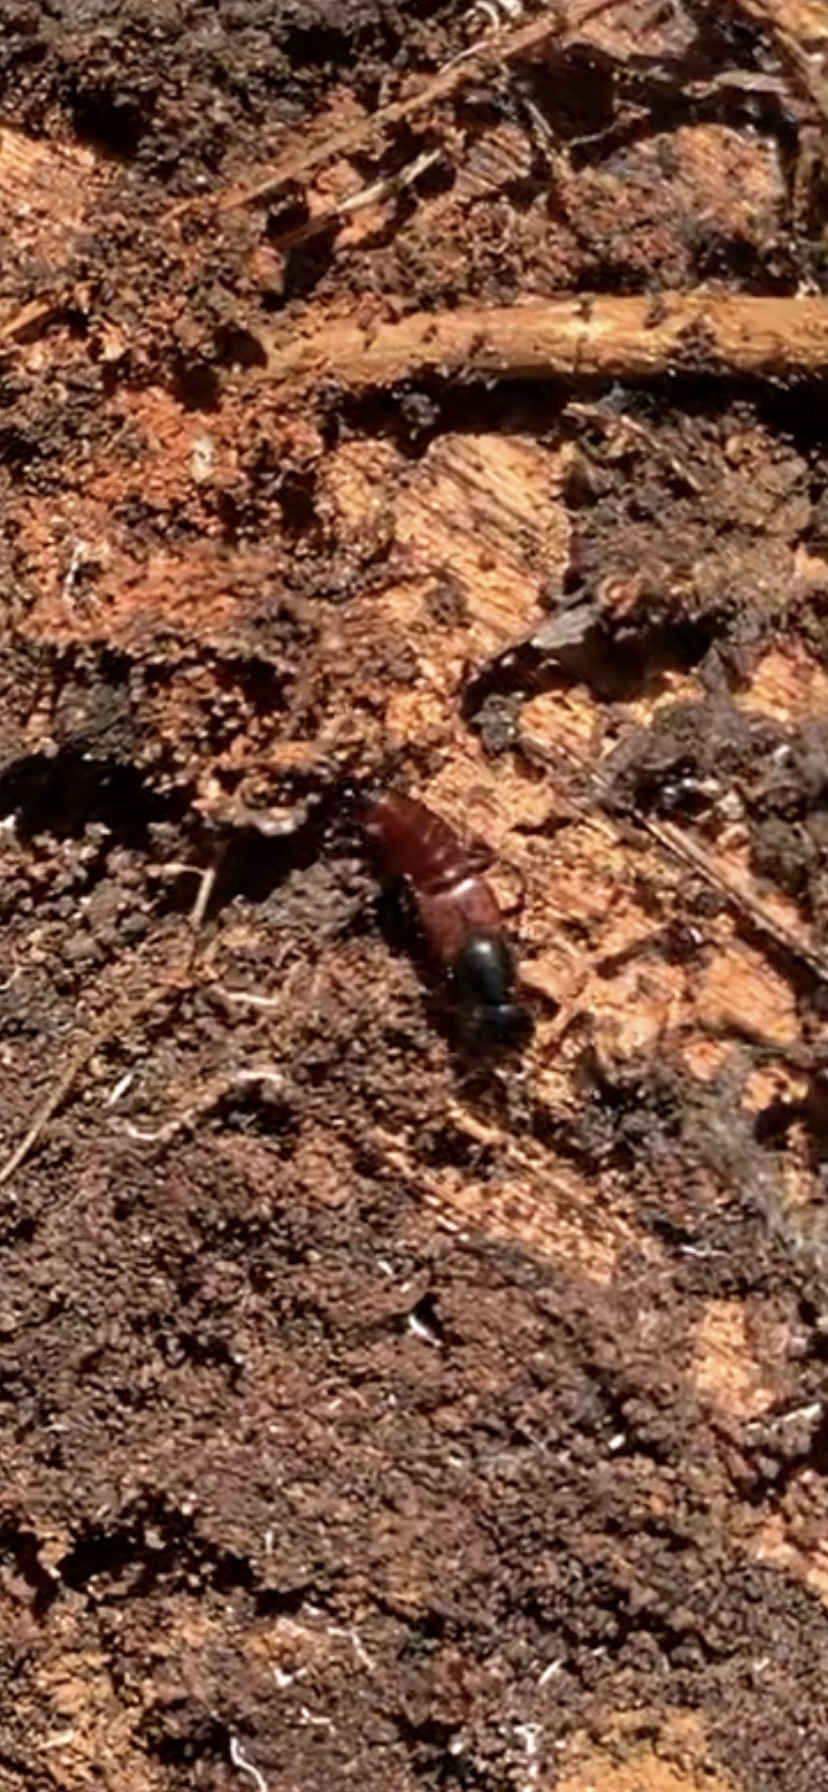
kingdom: Animalia
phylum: Arthropoda
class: Insecta
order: Coleoptera
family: Staphylinidae
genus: Hesperus
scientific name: Hesperus baltimorensis
